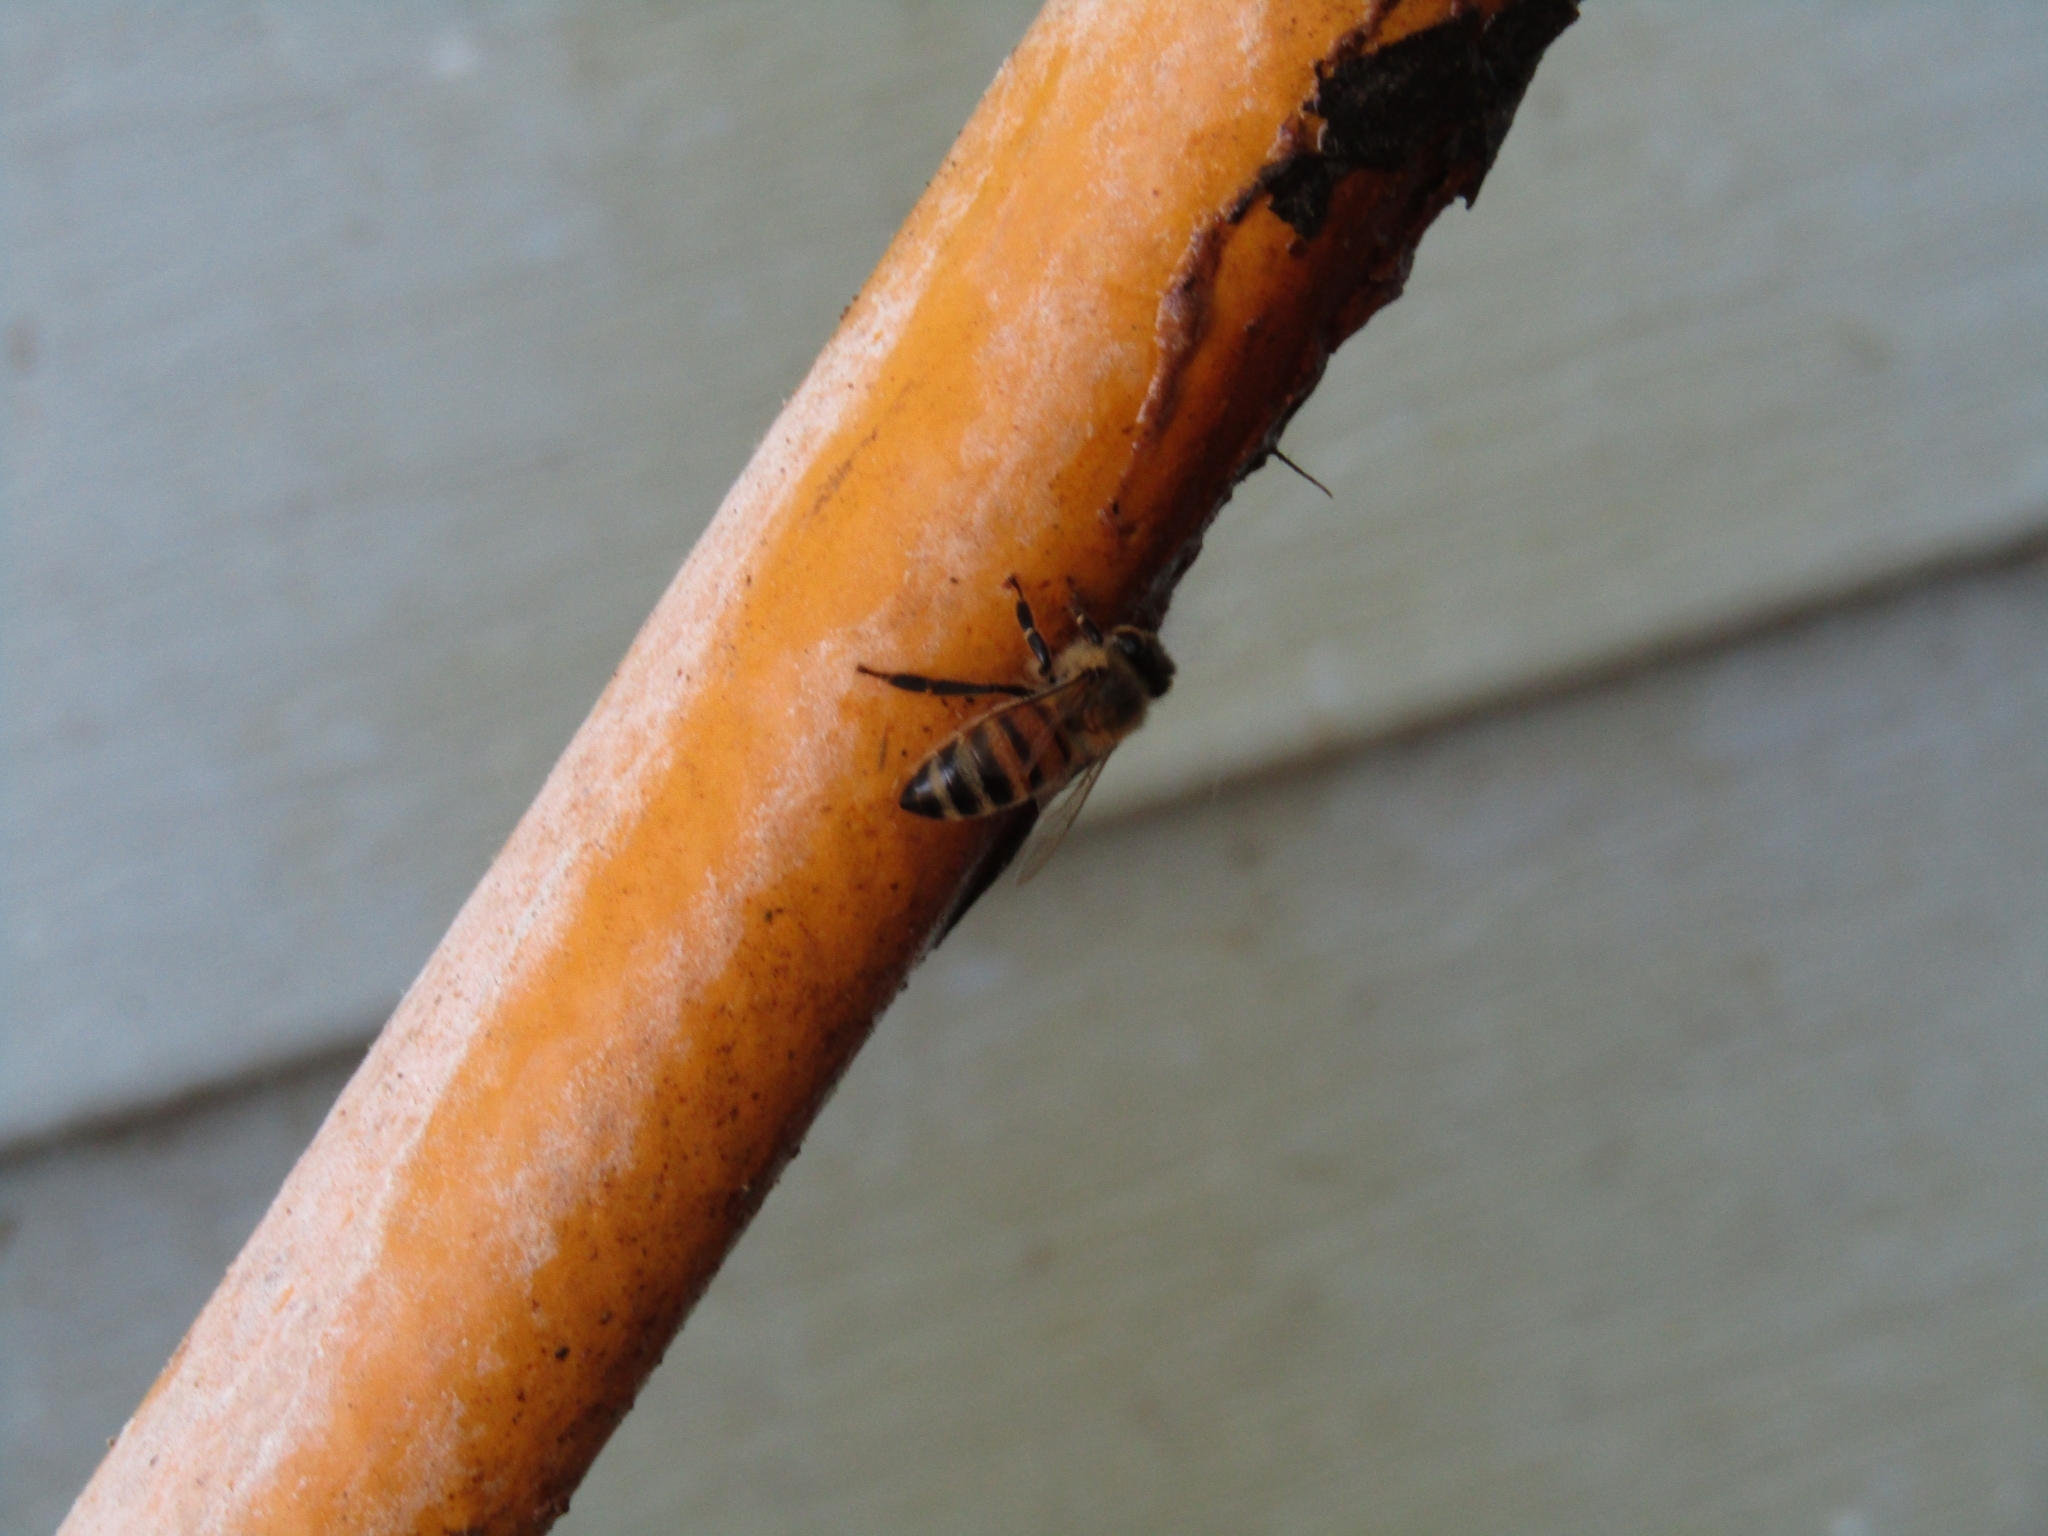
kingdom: Animalia
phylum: Arthropoda
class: Insecta
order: Hymenoptera
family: Apidae
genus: Apis
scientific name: Apis mellifera
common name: Honey bee
